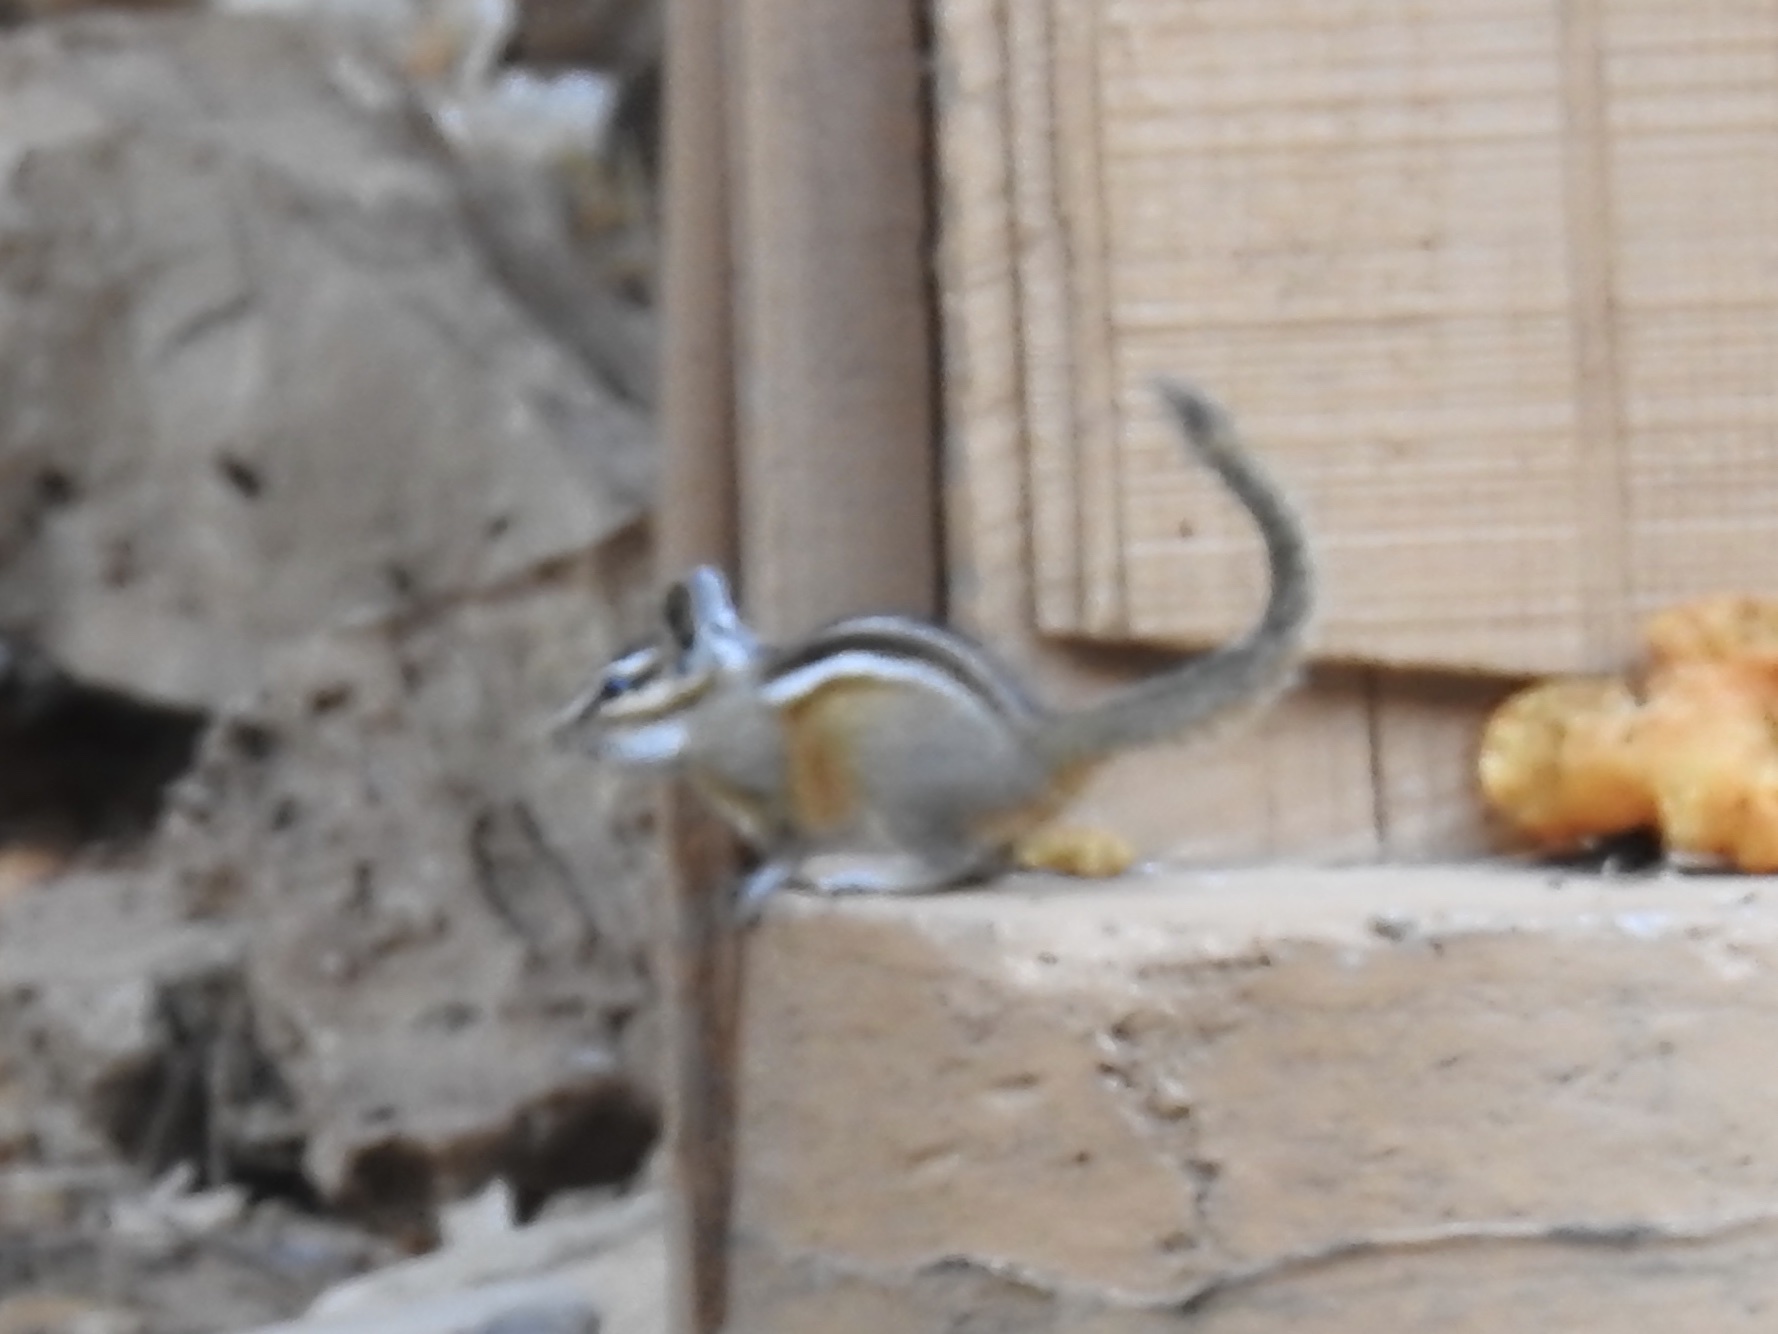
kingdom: Animalia
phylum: Chordata
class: Mammalia
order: Rodentia
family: Sciuridae
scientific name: Sciuridae
